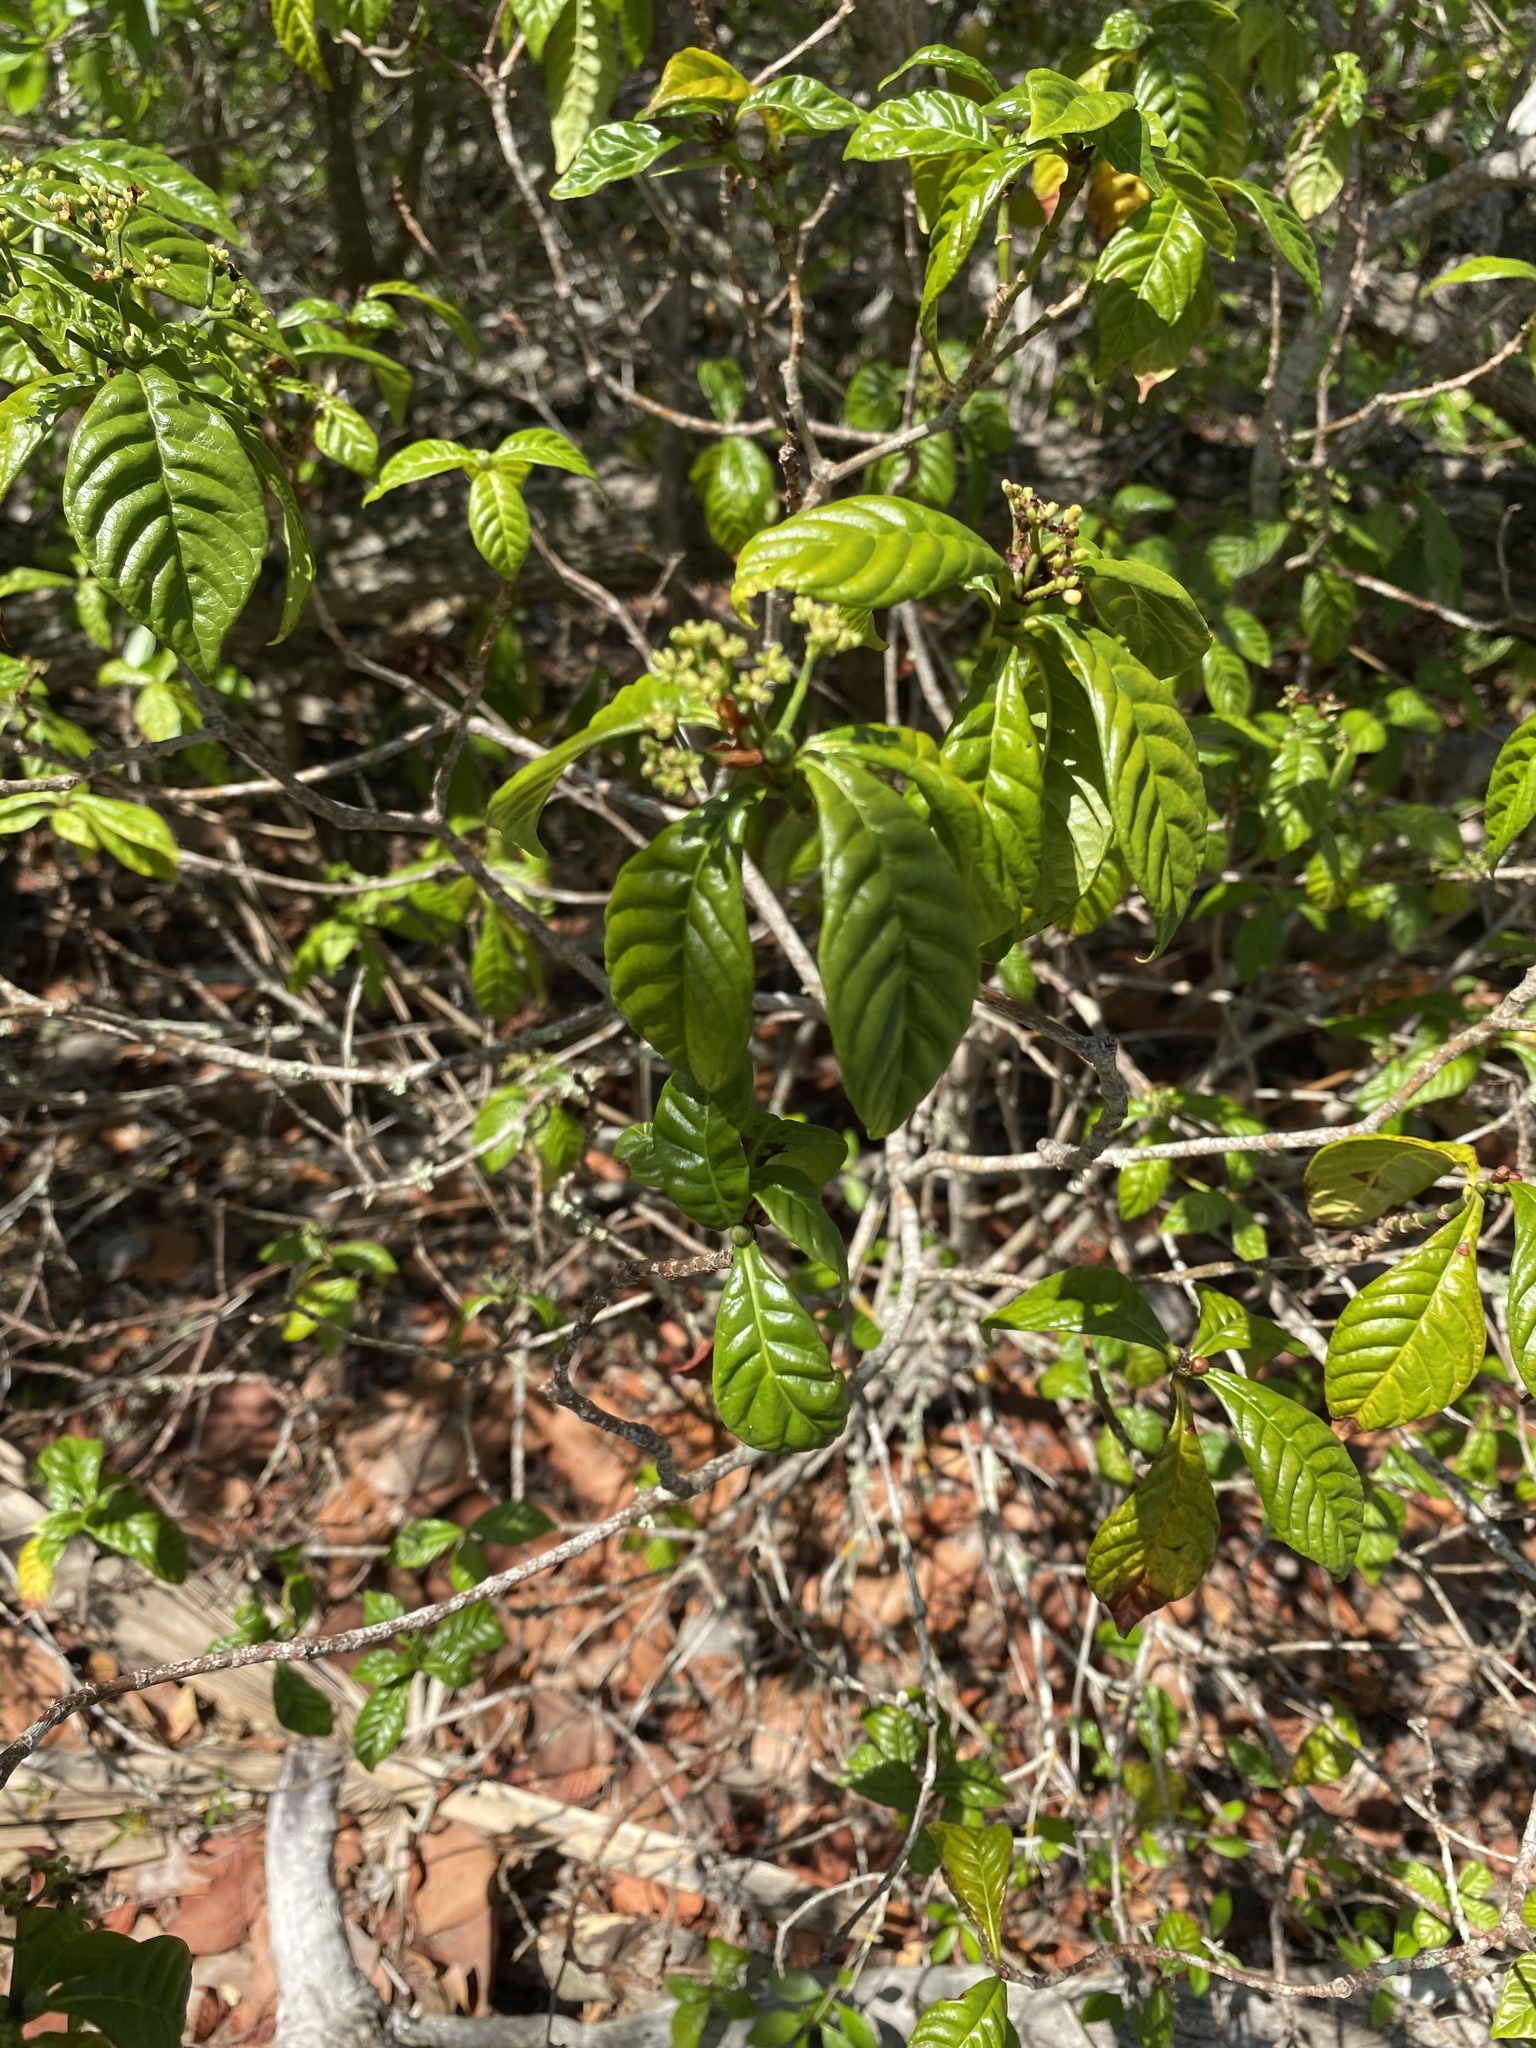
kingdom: Plantae
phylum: Tracheophyta
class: Magnoliopsida
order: Gentianales
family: Rubiaceae
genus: Psychotria
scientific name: Psychotria nervosa
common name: Bastard cankerberry
